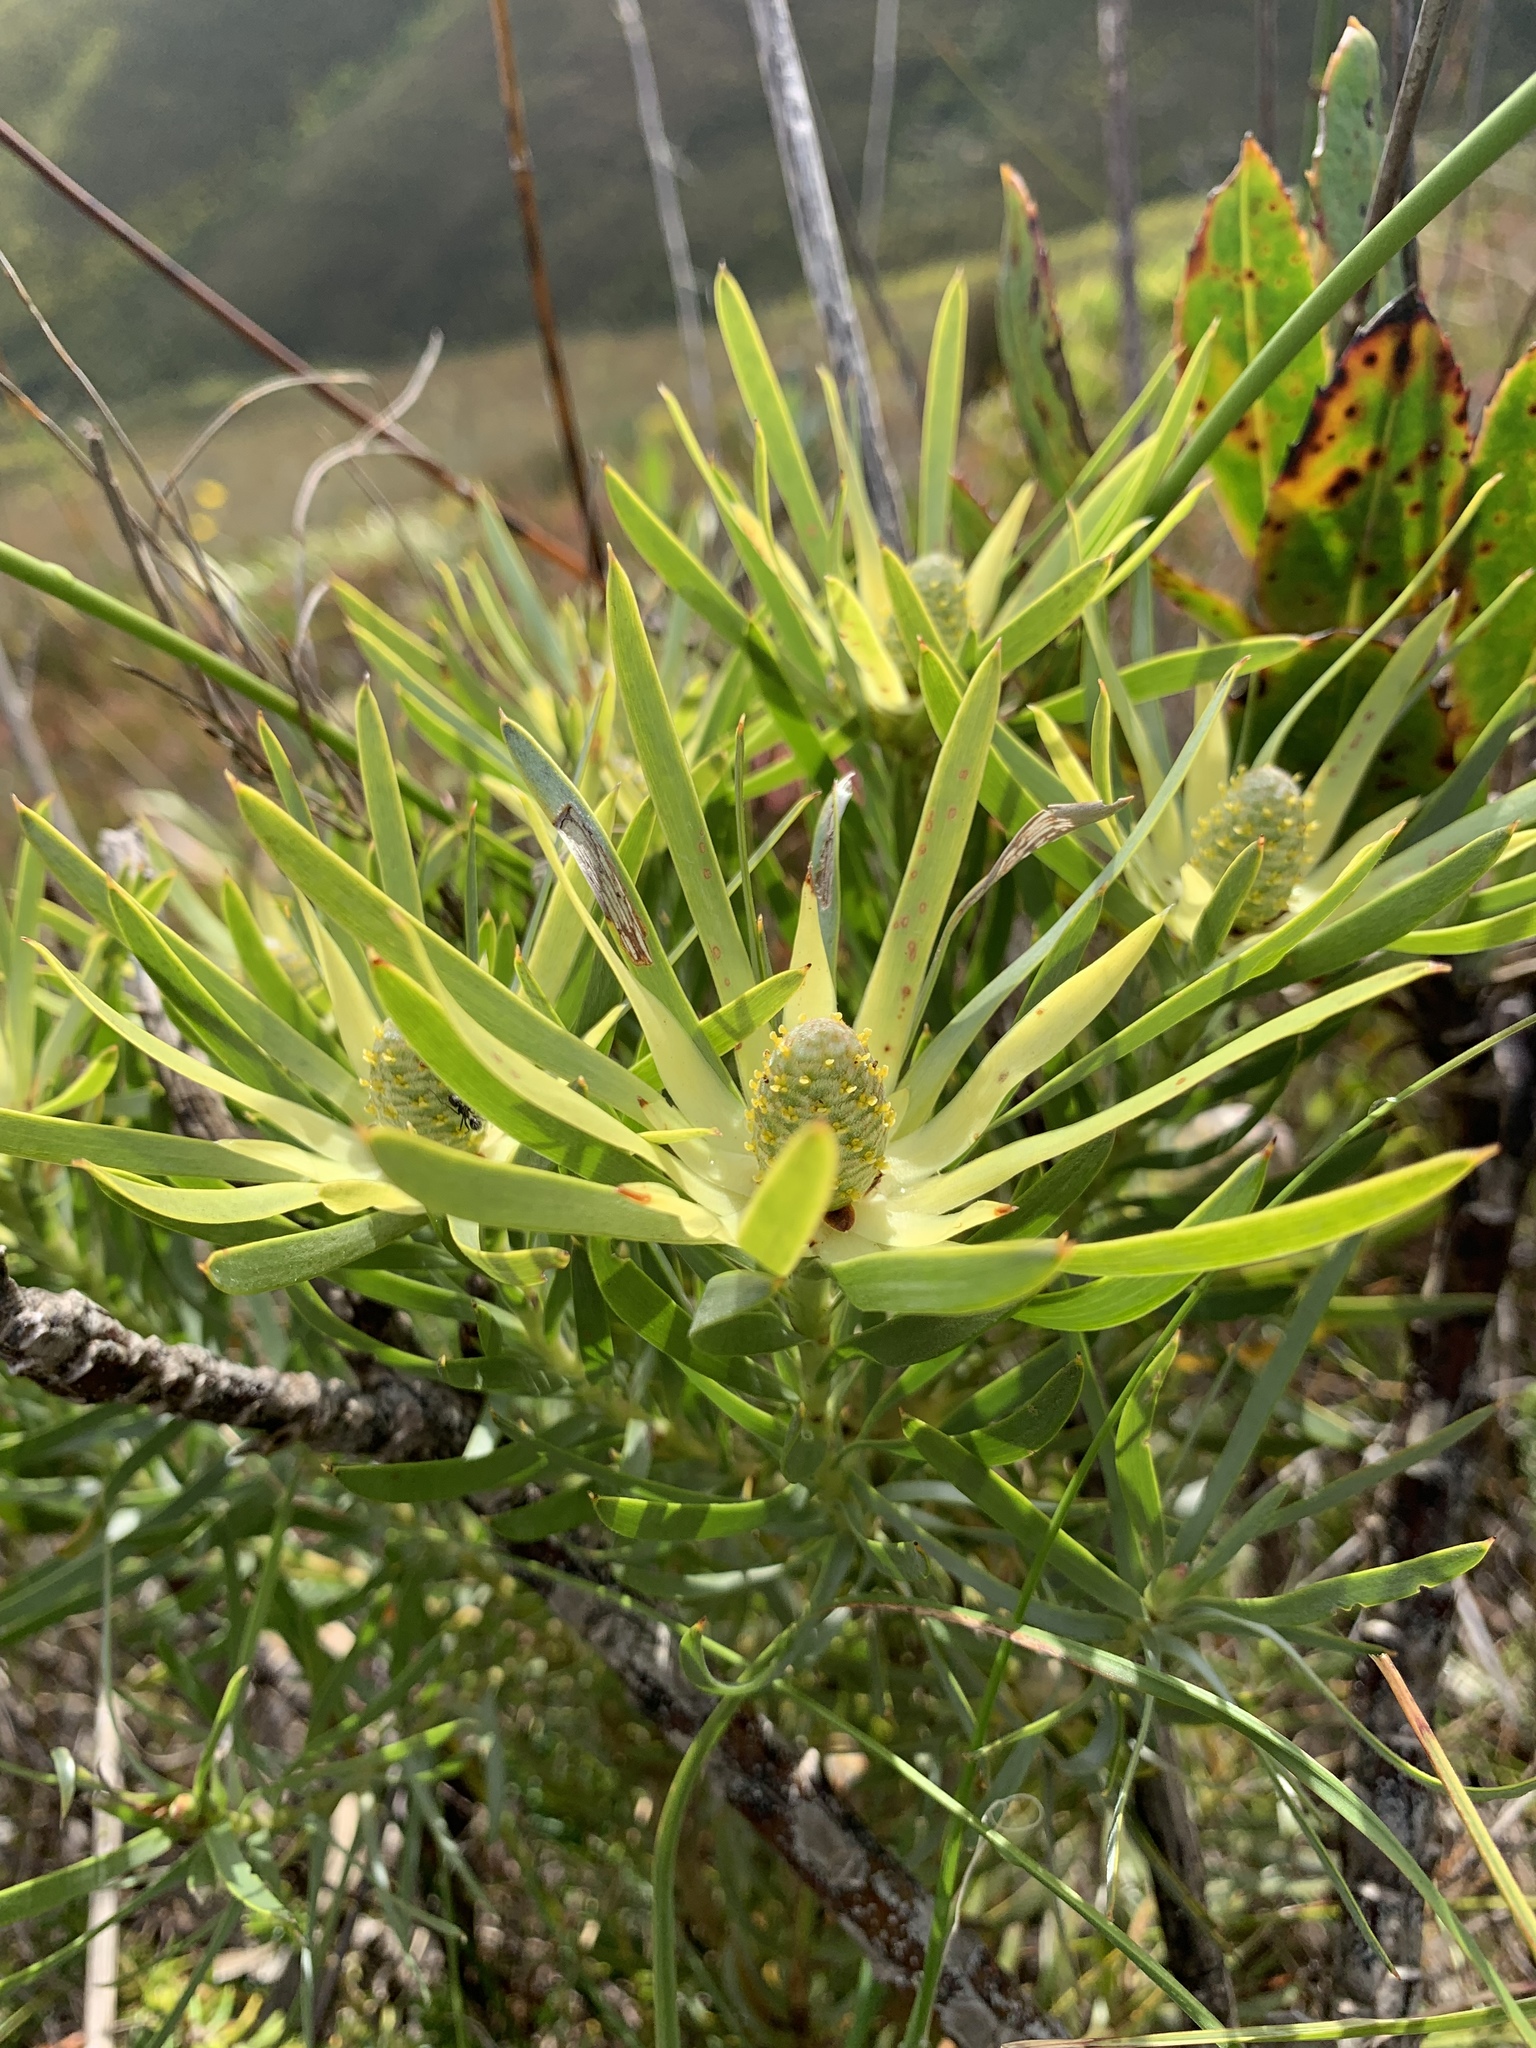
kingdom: Plantae
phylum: Tracheophyta
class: Magnoliopsida
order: Proteales
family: Proteaceae
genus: Leucadendron
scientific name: Leucadendron salignum
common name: Common sunshine conebush
